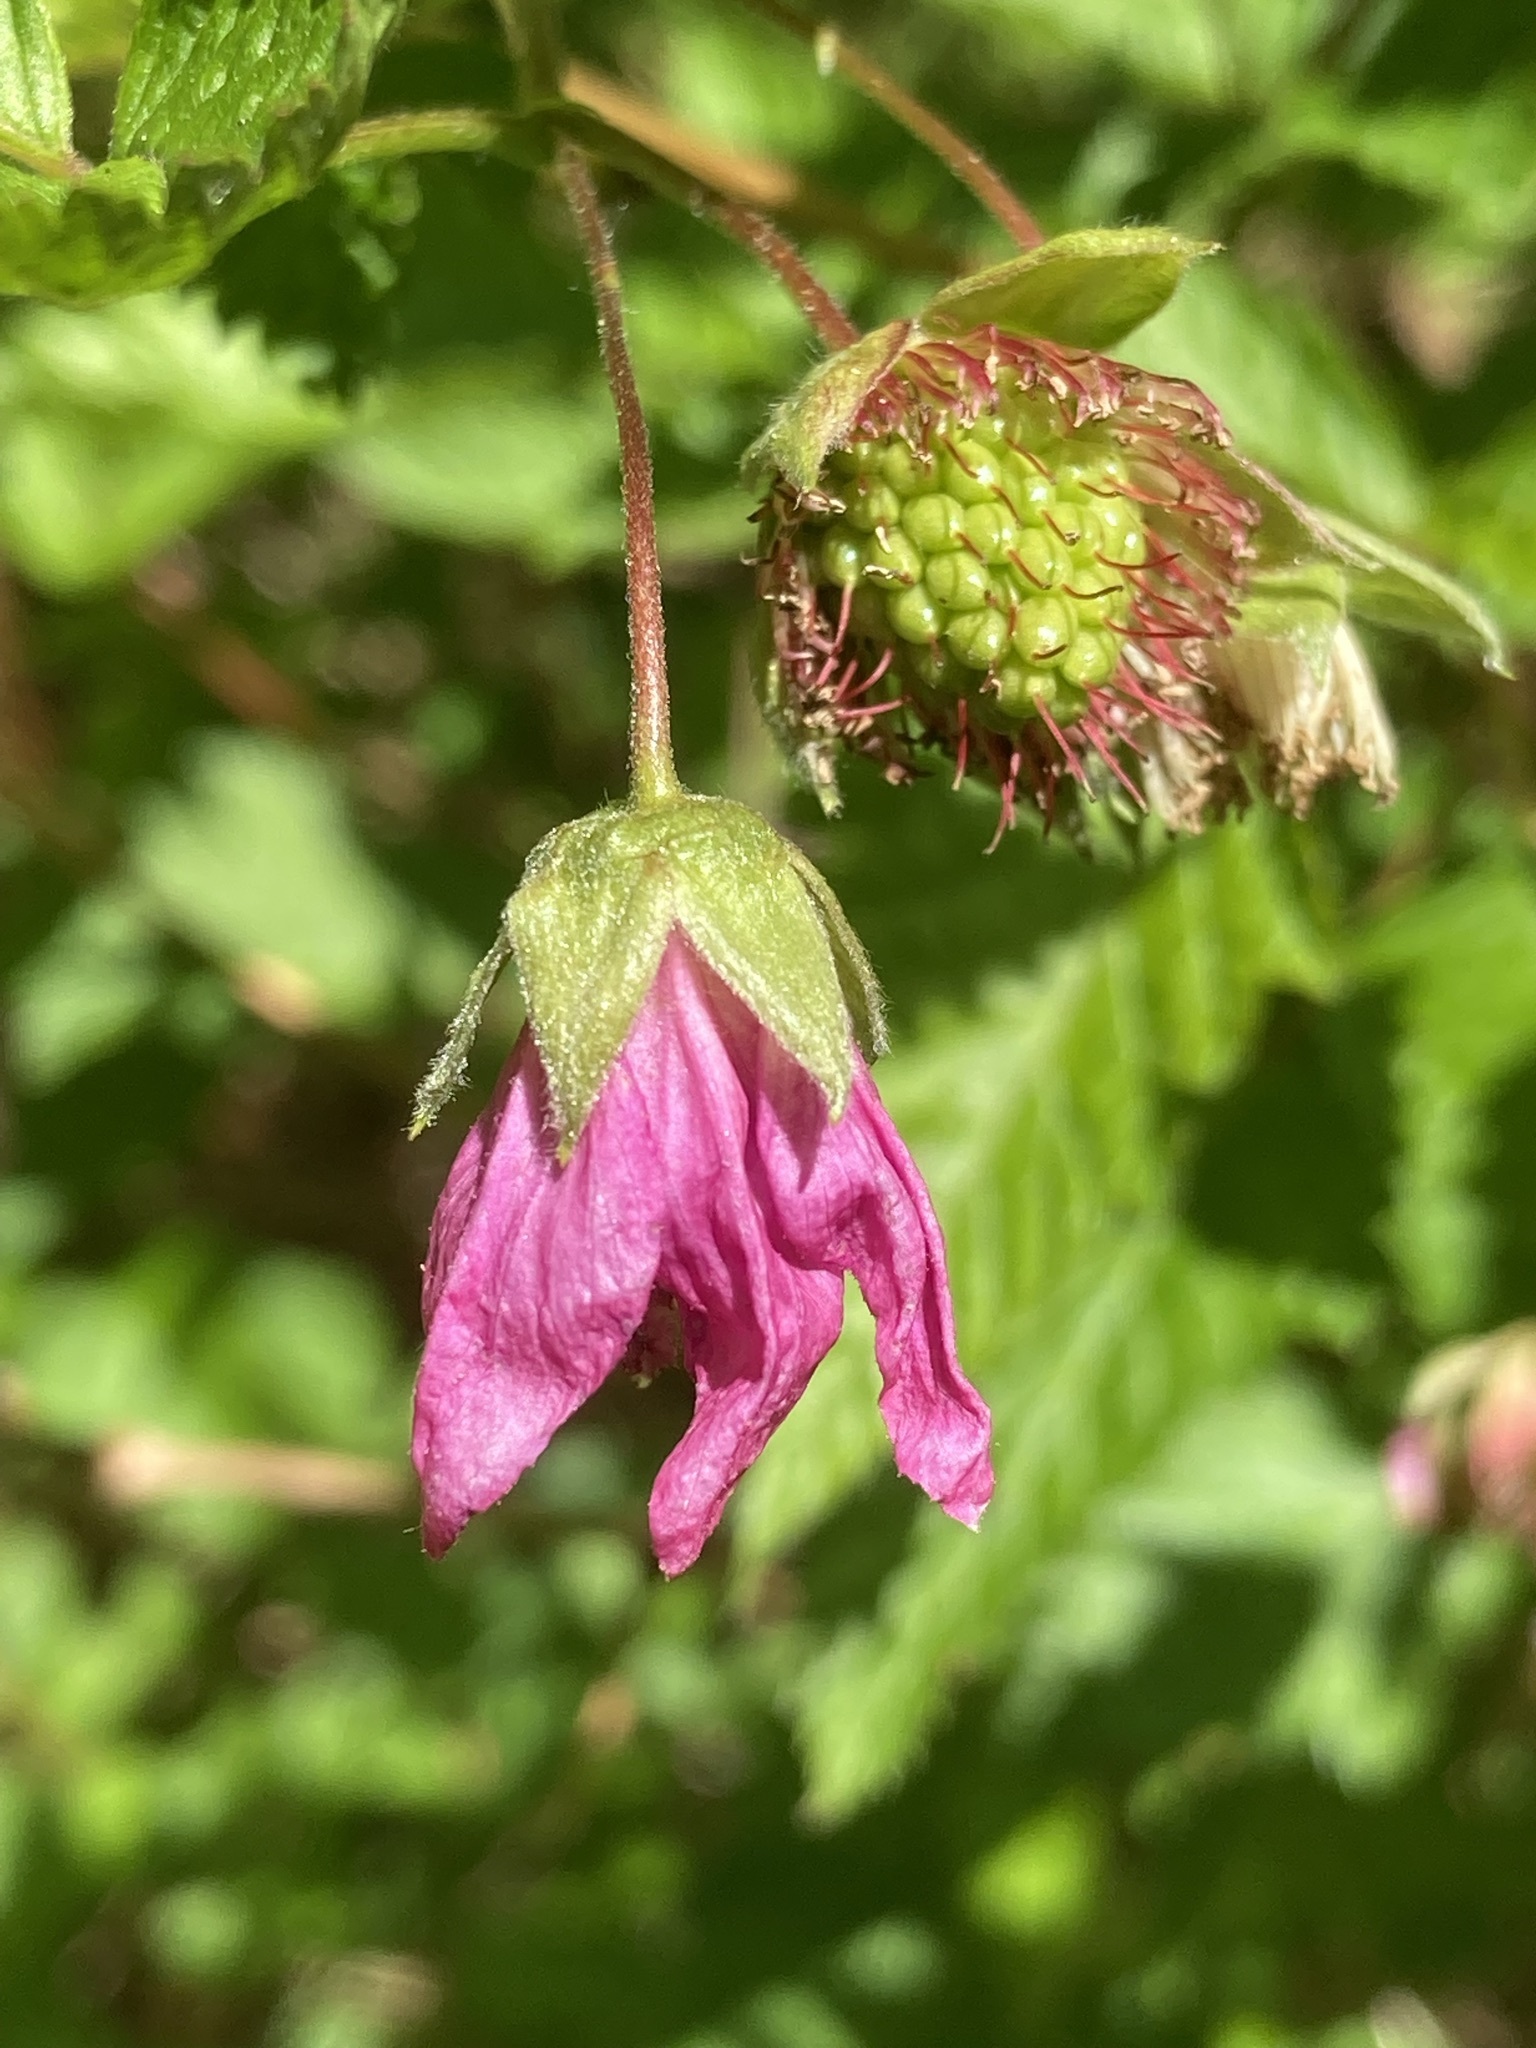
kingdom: Plantae
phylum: Tracheophyta
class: Magnoliopsida
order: Rosales
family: Rosaceae
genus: Rubus
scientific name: Rubus spectabilis
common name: Salmonberry
